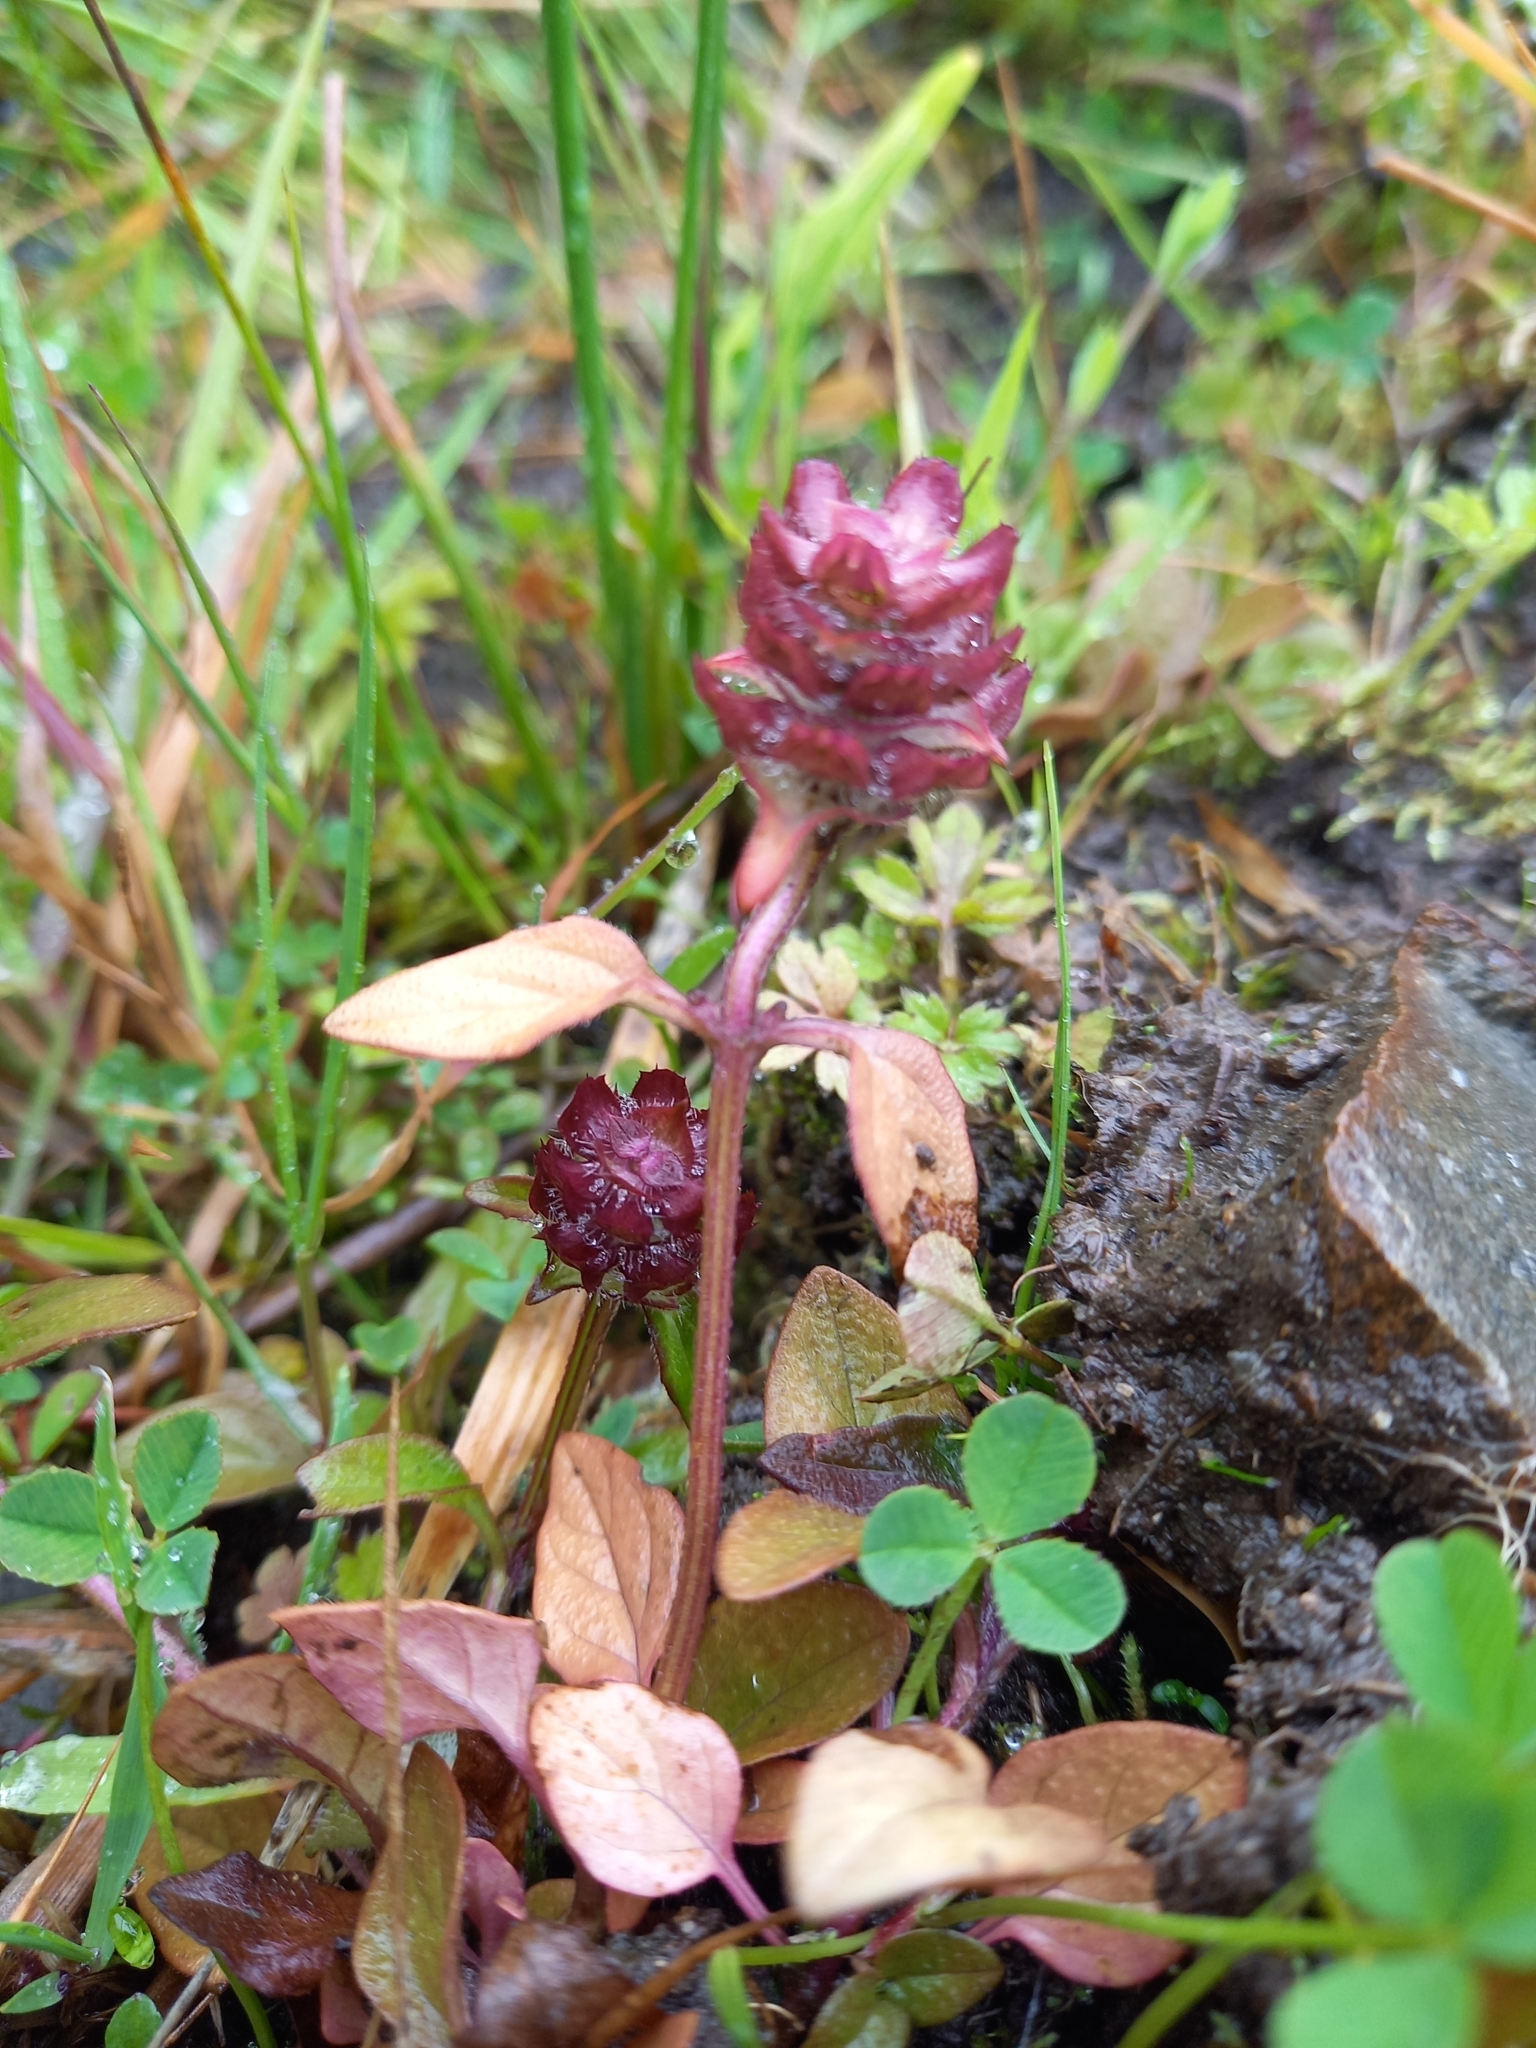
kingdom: Plantae
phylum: Tracheophyta
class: Magnoliopsida
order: Lamiales
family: Lamiaceae
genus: Prunella
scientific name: Prunella vulgaris
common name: Heal-all
